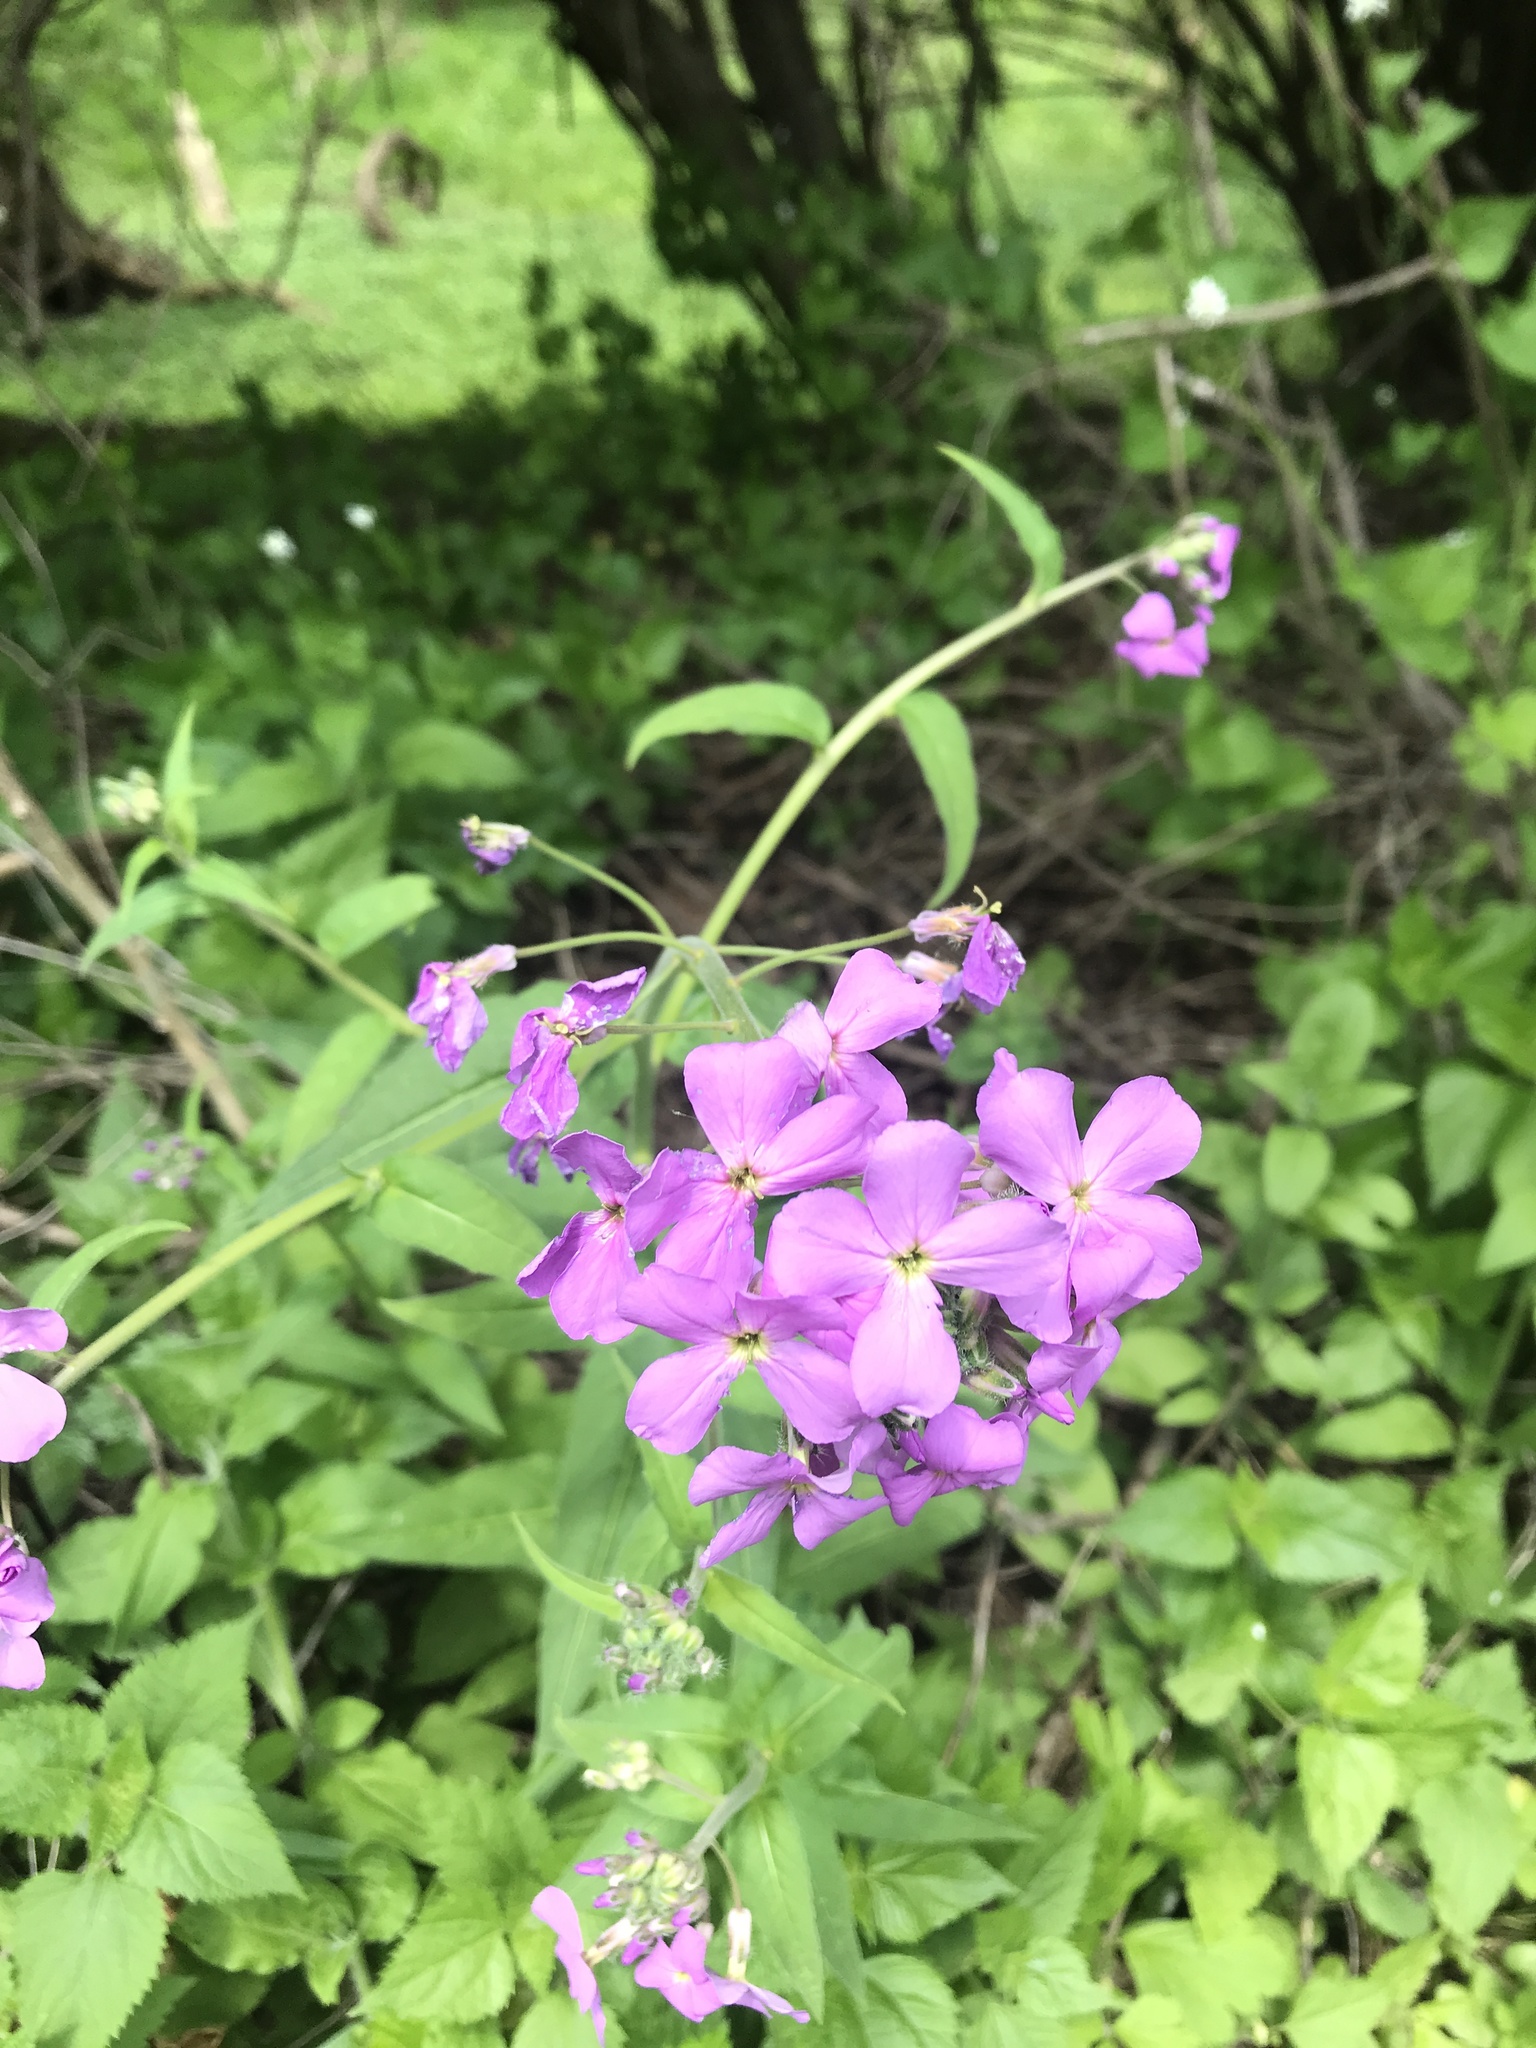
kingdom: Plantae
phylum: Tracheophyta
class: Magnoliopsida
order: Brassicales
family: Brassicaceae
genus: Hesperis
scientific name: Hesperis matronalis
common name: Dame's-violet
